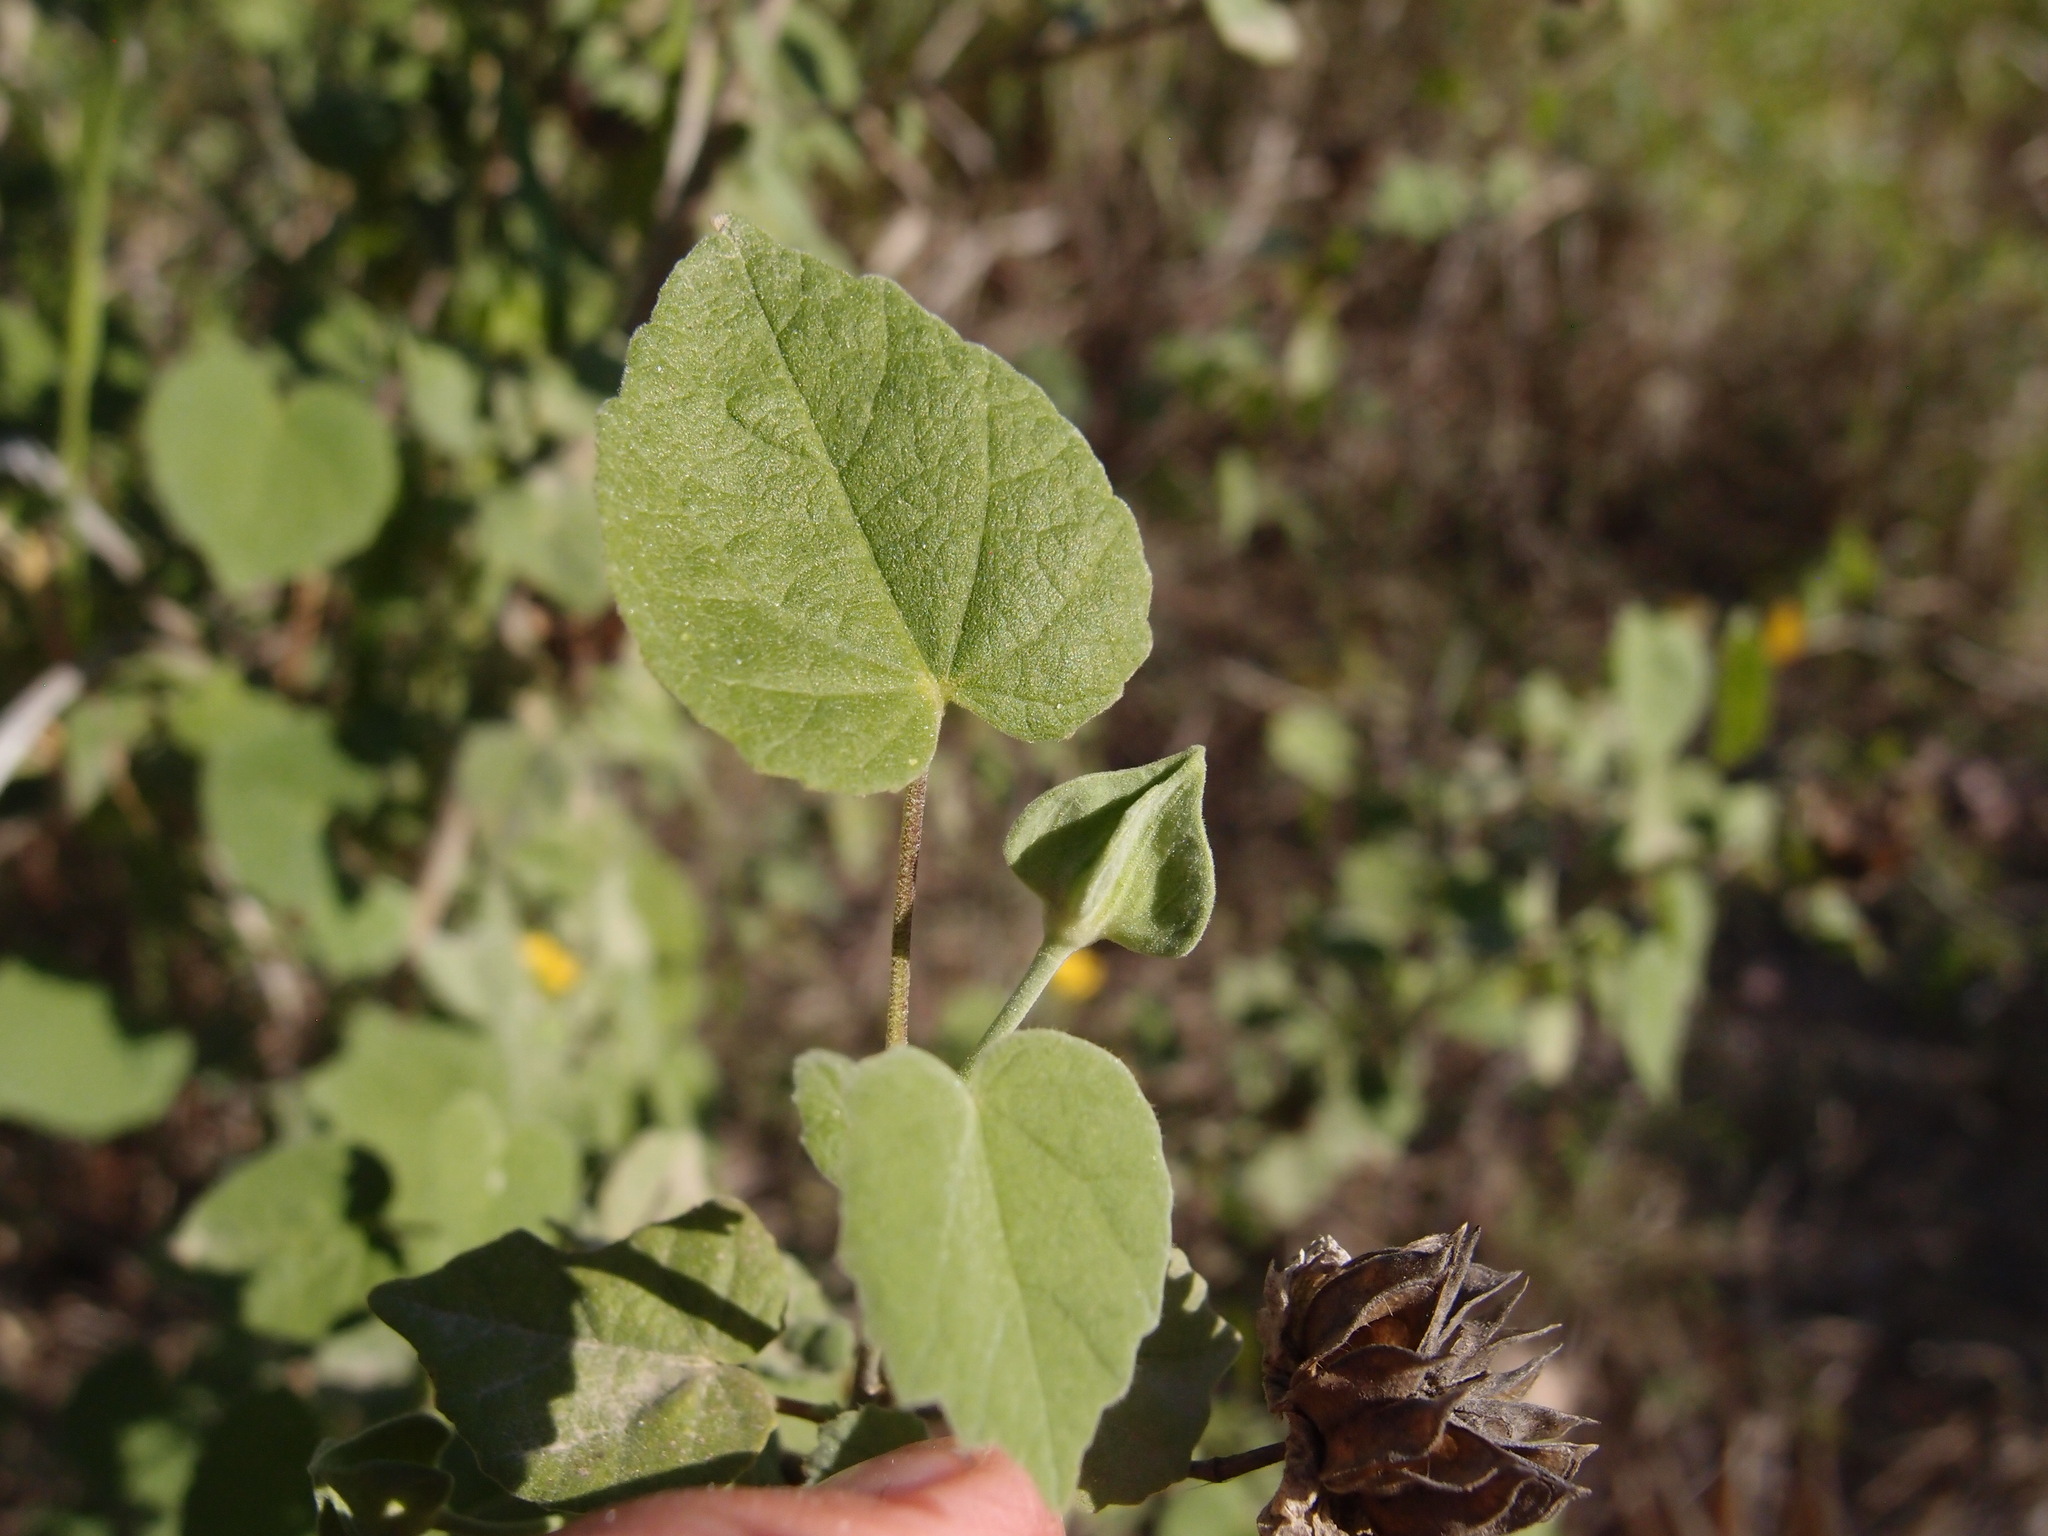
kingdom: Plantae
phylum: Tracheophyta
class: Magnoliopsida
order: Malvales
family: Malvaceae
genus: Abutilon
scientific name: Abutilon abutiloides
